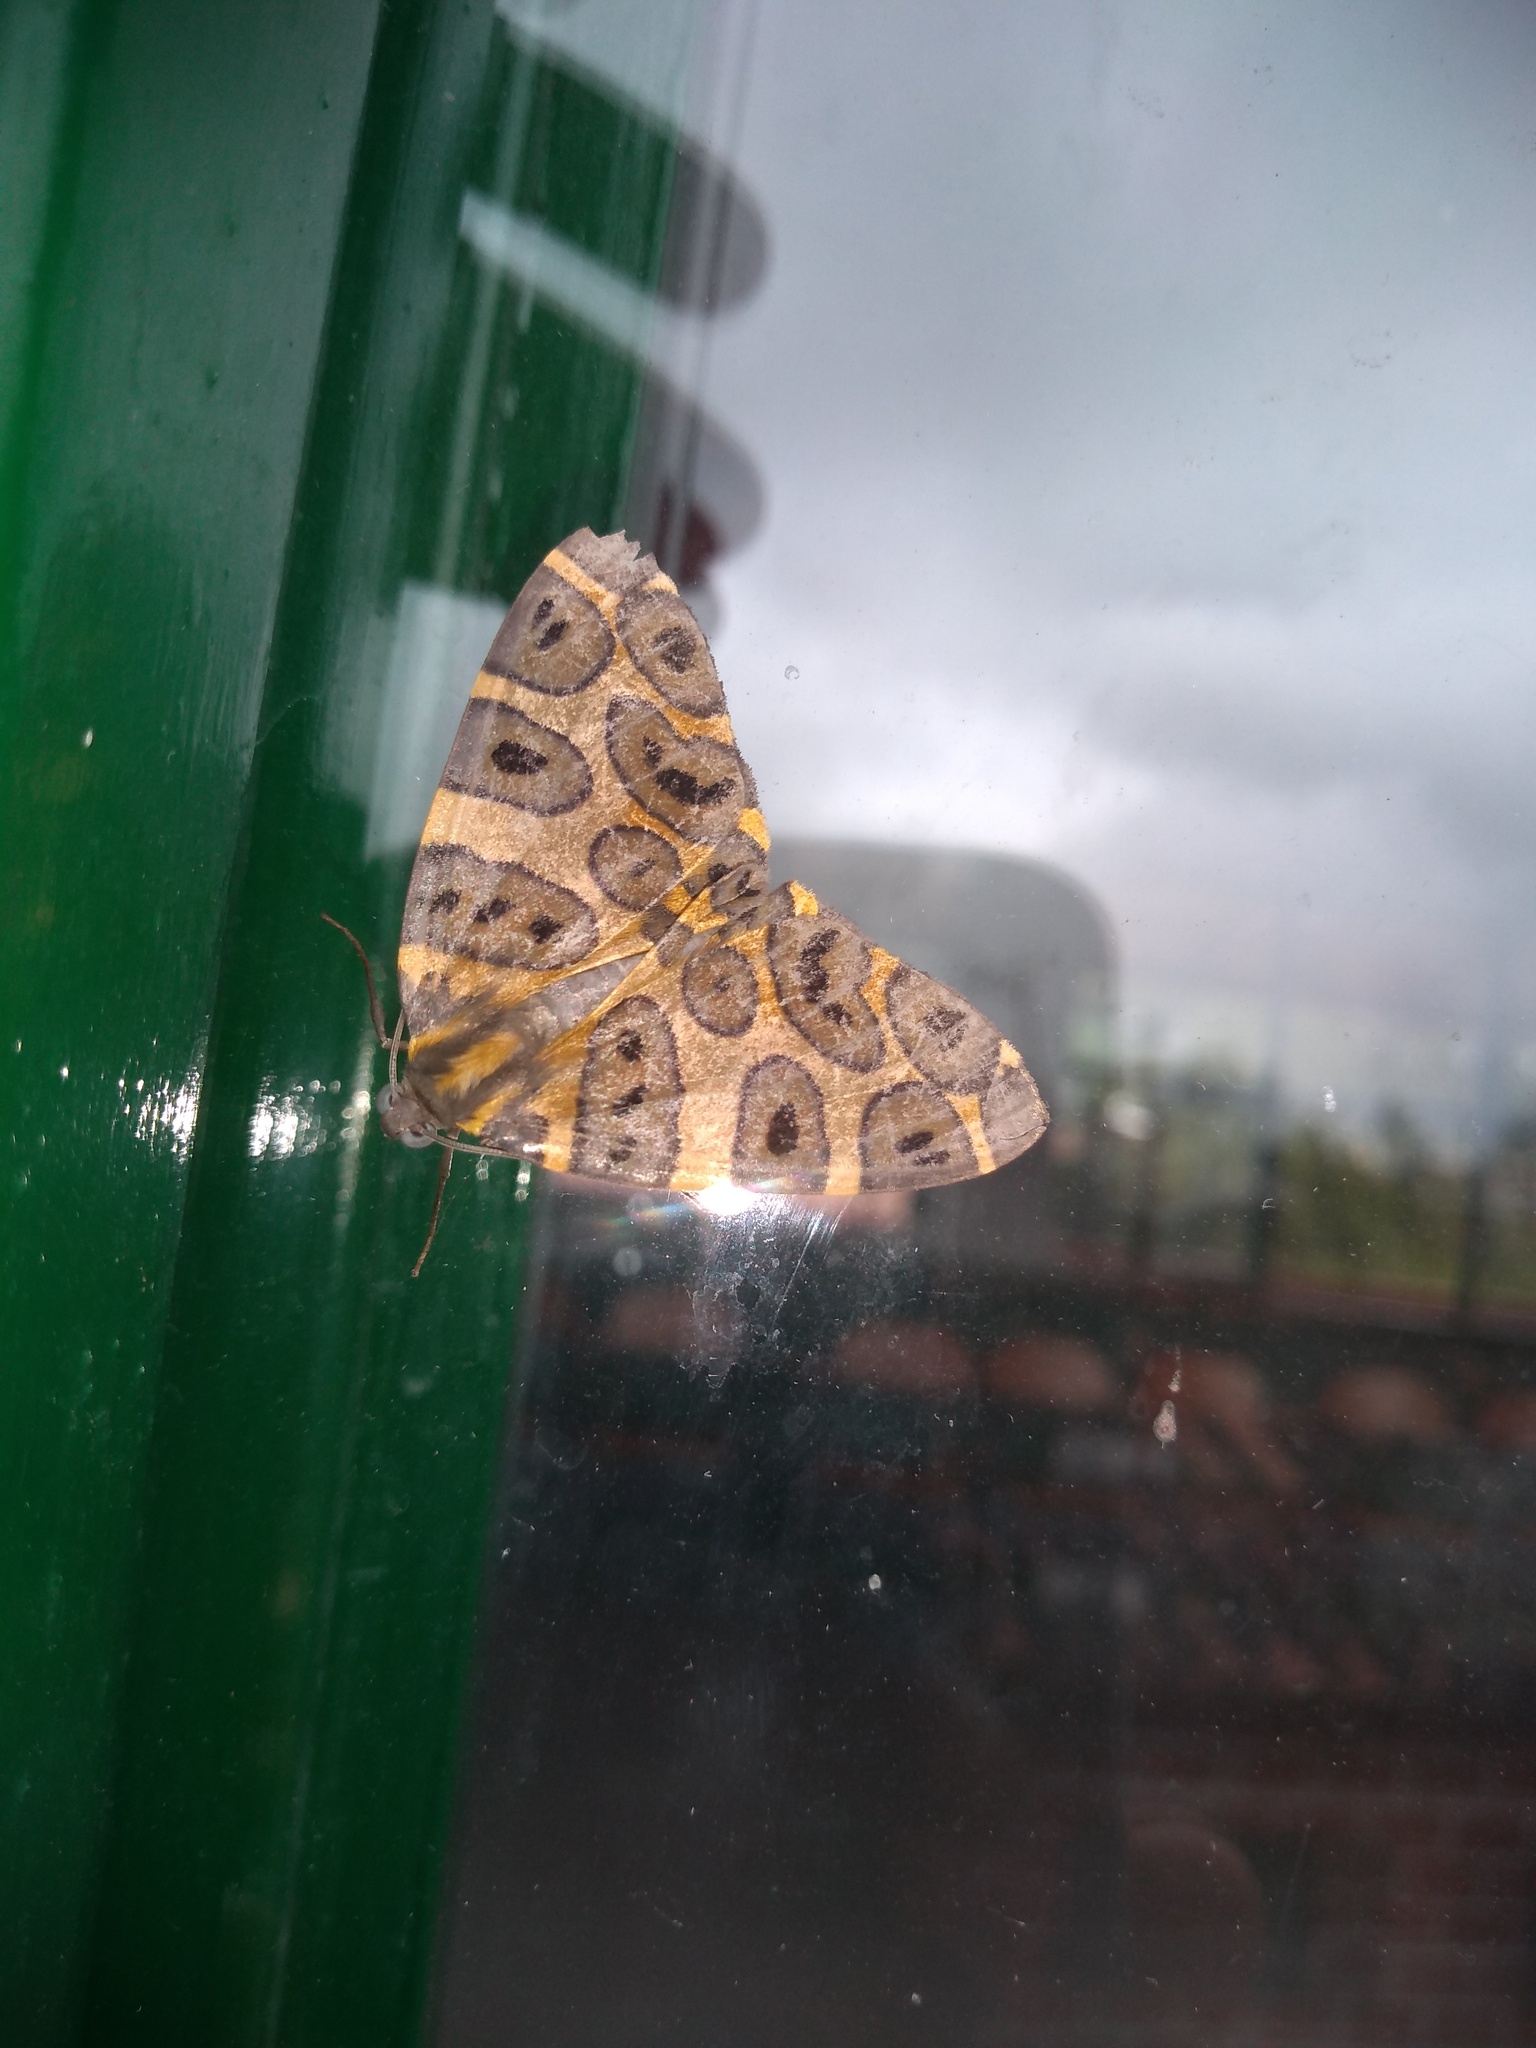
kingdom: Animalia
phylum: Arthropoda
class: Insecta
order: Lepidoptera
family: Geometridae
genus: Pantherodes
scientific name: Pantherodes pardalaria
